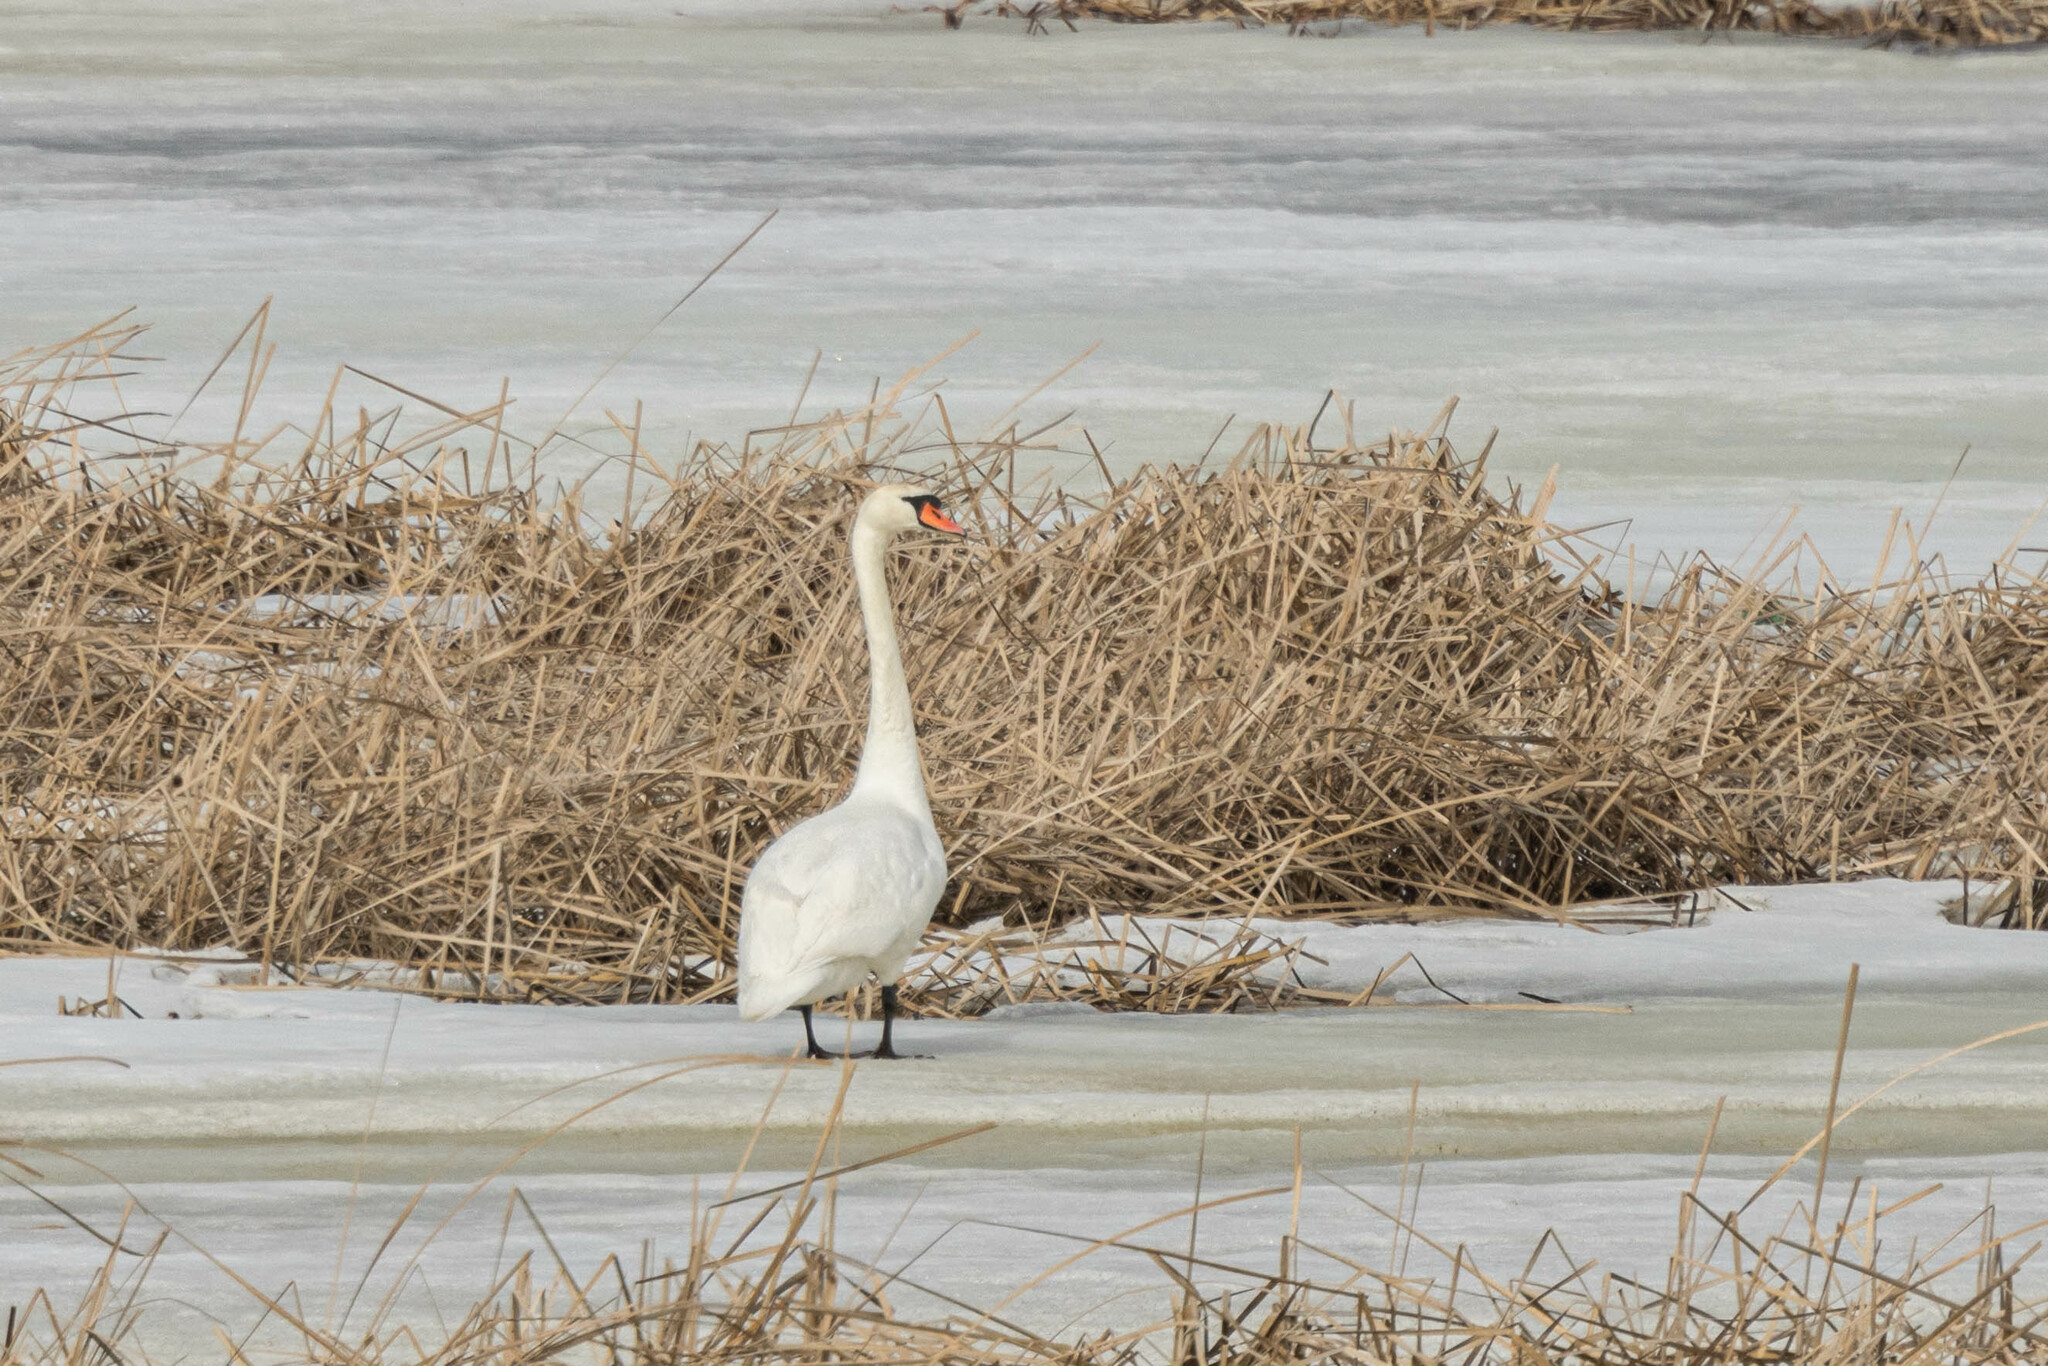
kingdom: Animalia
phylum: Chordata
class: Aves
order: Anseriformes
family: Anatidae
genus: Cygnus
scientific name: Cygnus olor
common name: Mute swan
